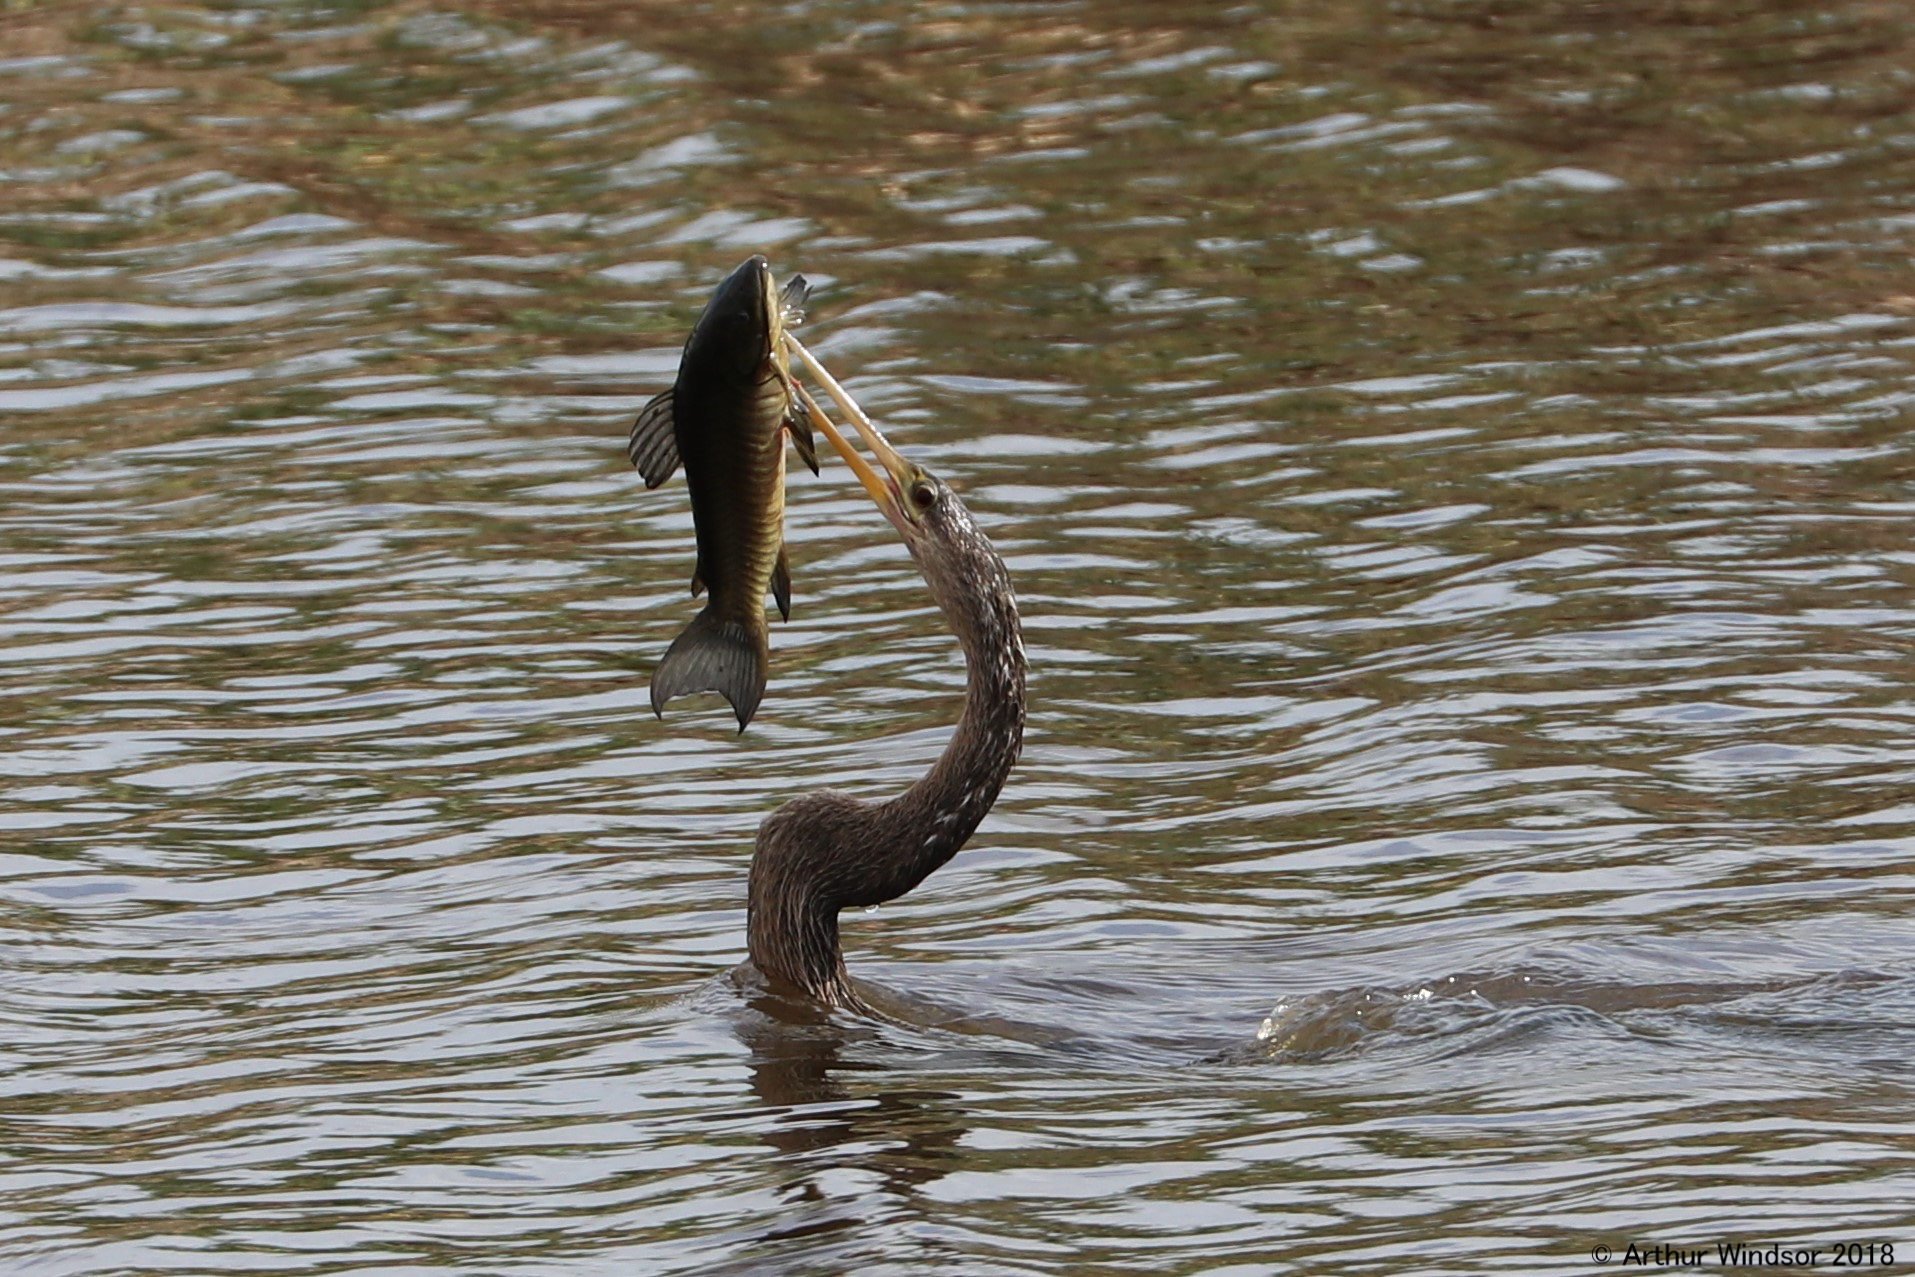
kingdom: Animalia
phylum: Chordata
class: Aves
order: Suliformes
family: Anhingidae
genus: Anhinga
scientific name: Anhinga anhinga
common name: Anhinga
